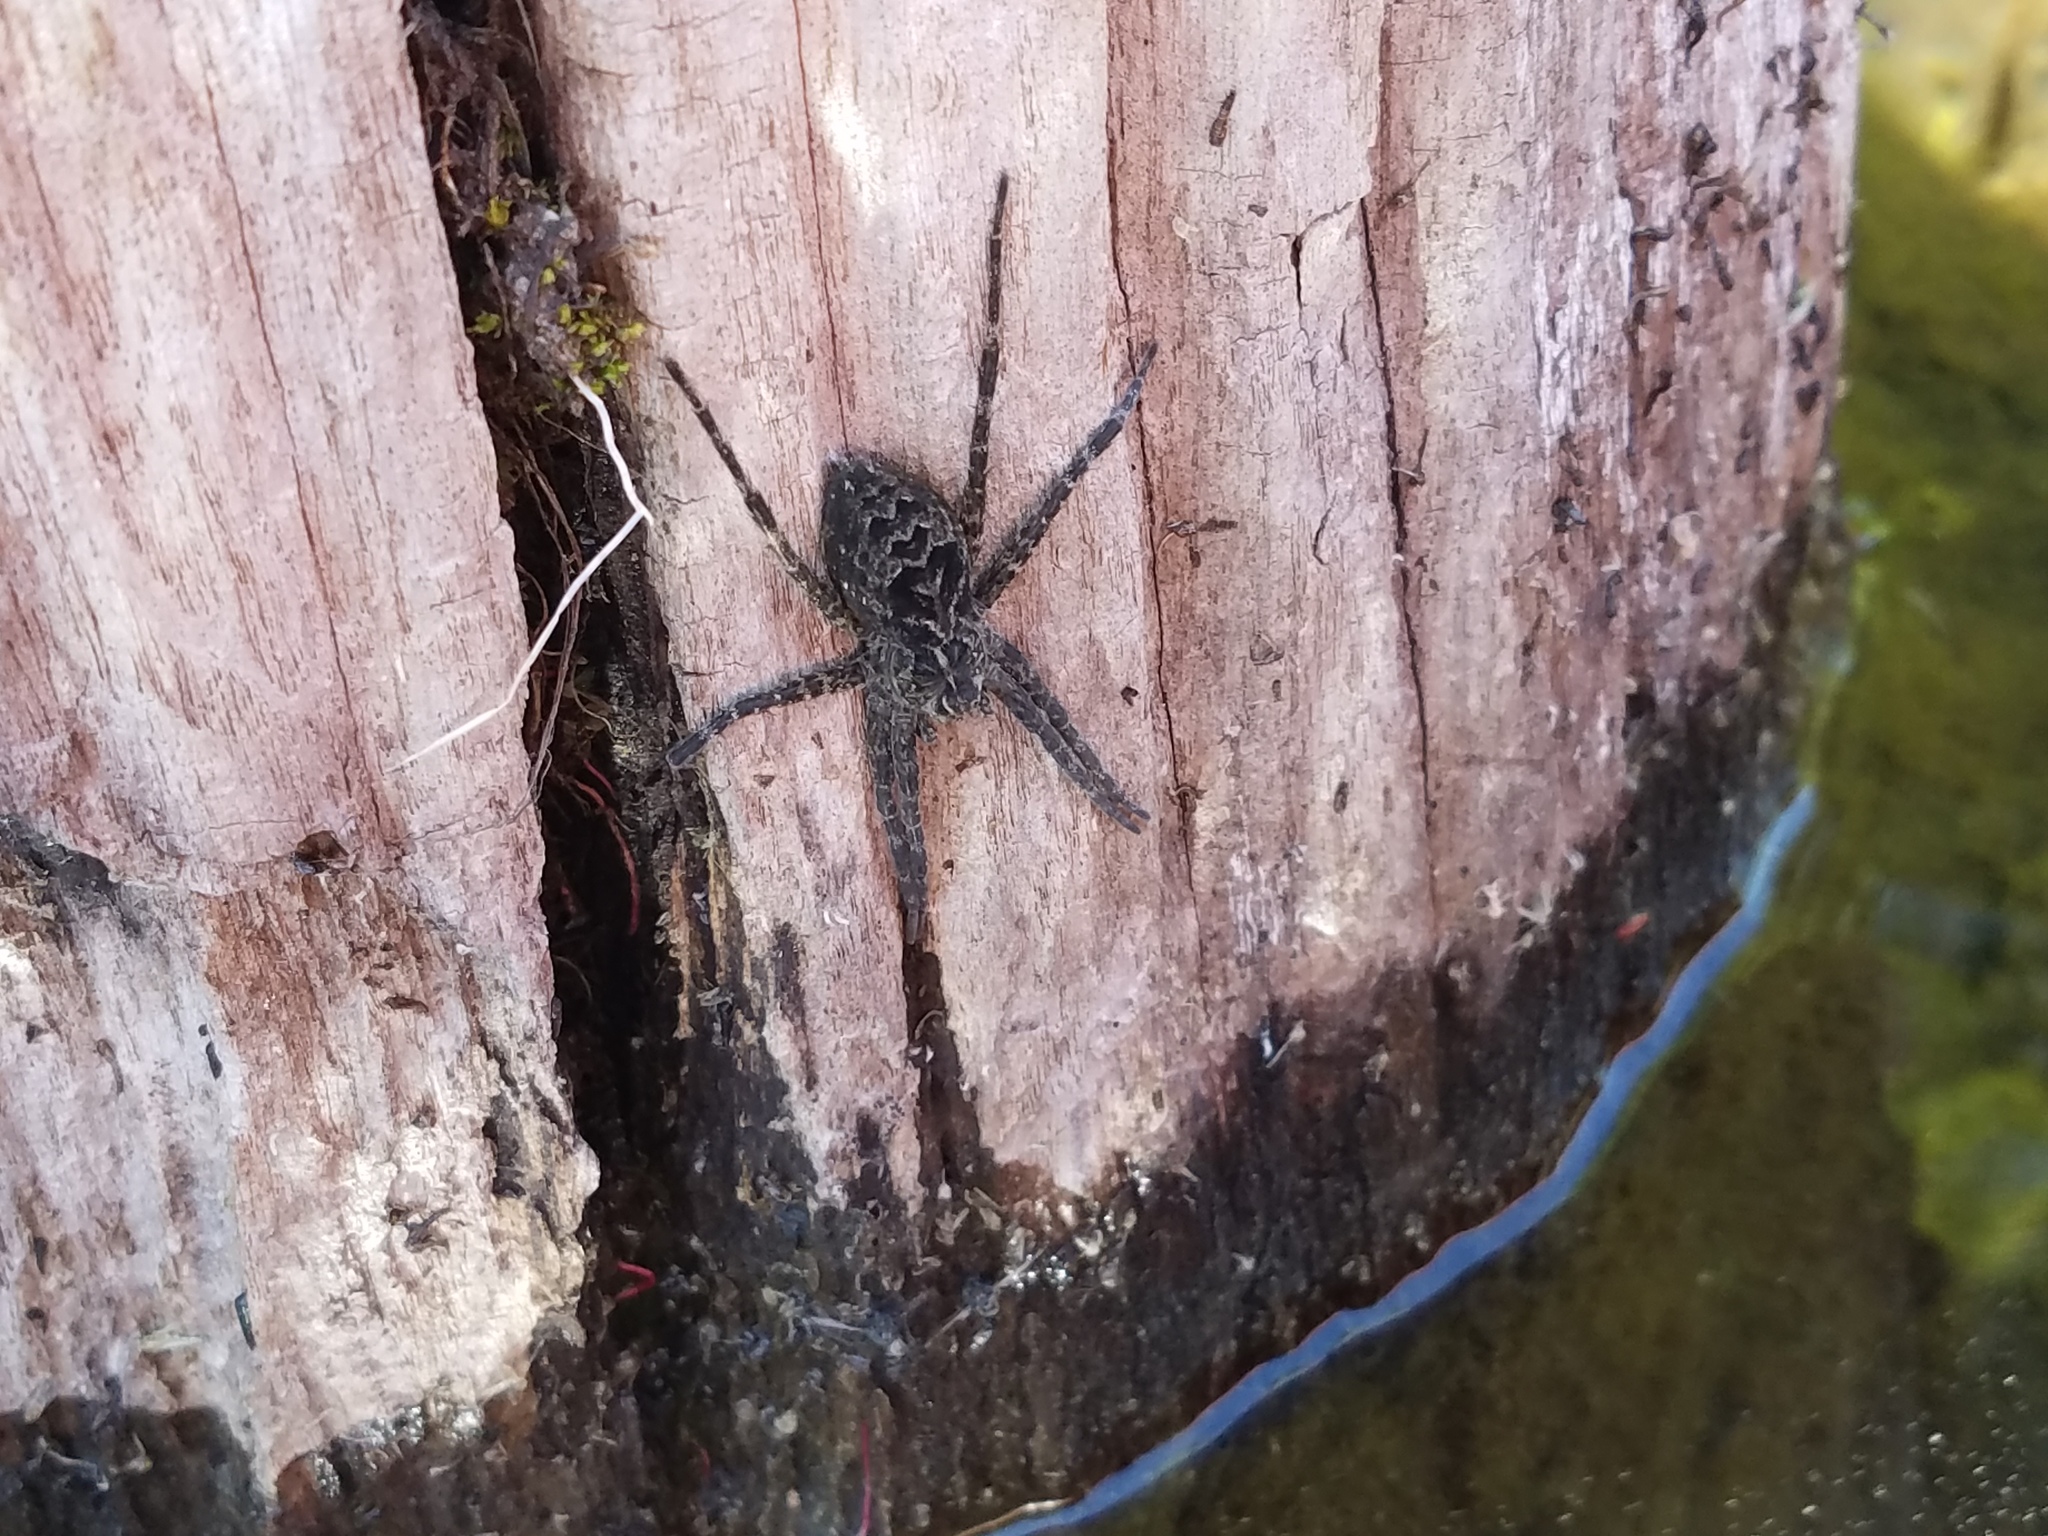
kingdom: Animalia
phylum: Arthropoda
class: Arachnida
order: Araneae
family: Pisauridae
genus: Dolomedes
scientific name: Dolomedes scriptus
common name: Striped fishing spider
